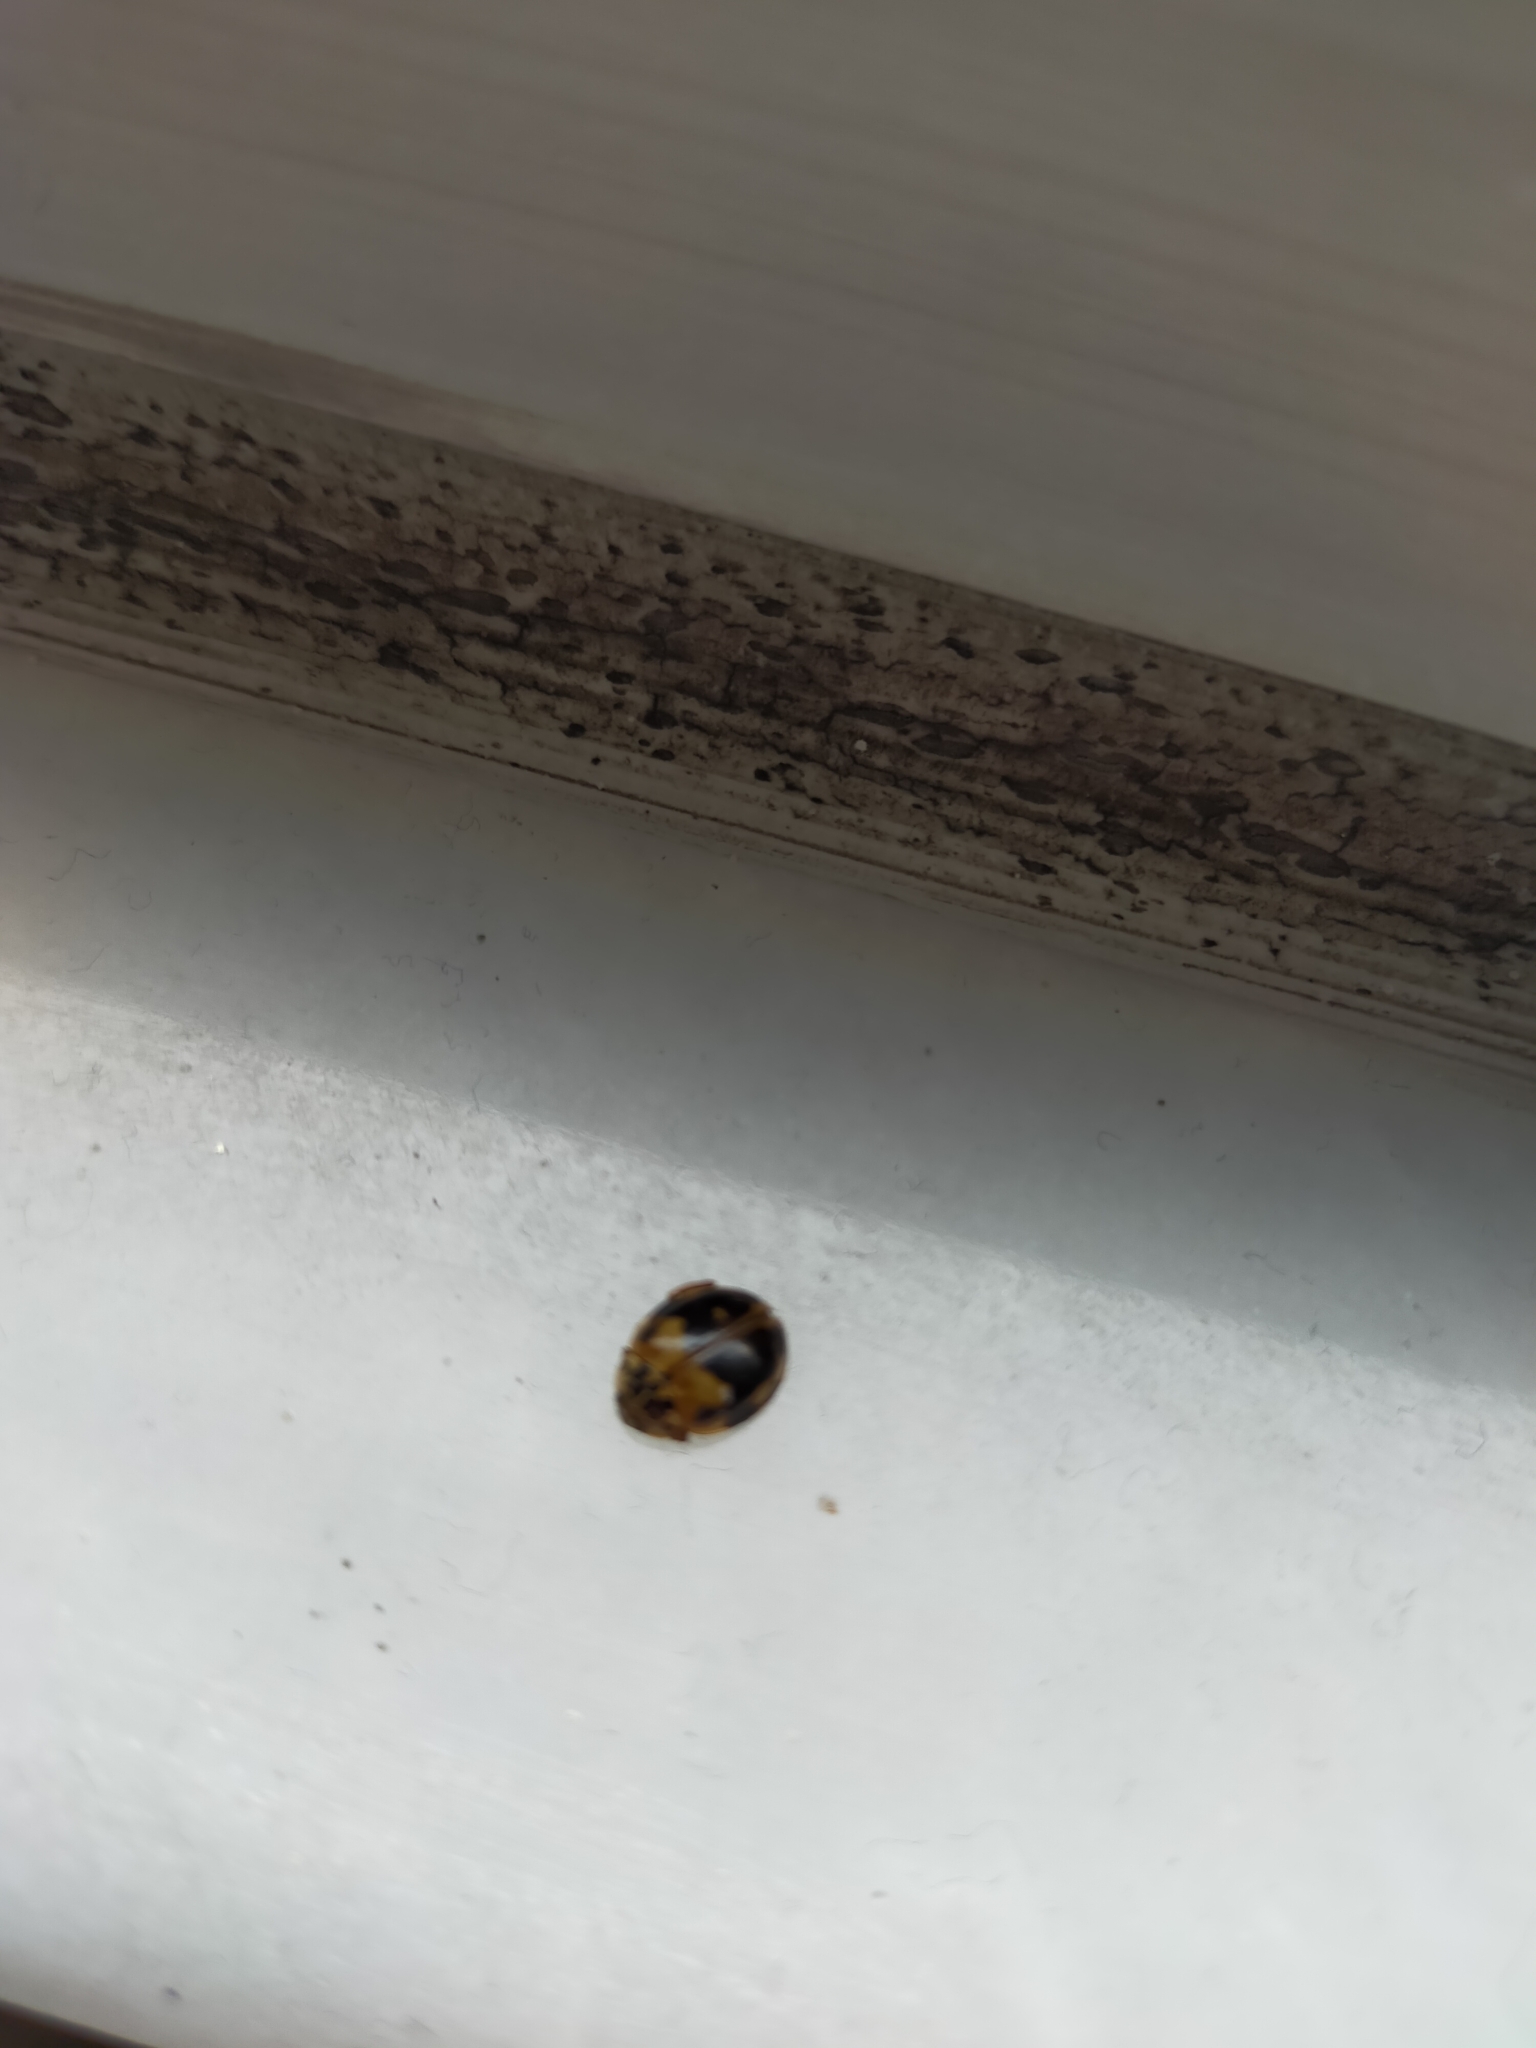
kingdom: Animalia
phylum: Arthropoda
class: Insecta
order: Coleoptera
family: Coccinellidae
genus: Harmonia
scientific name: Harmonia quadripunctata
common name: Cream-streaked ladybird
